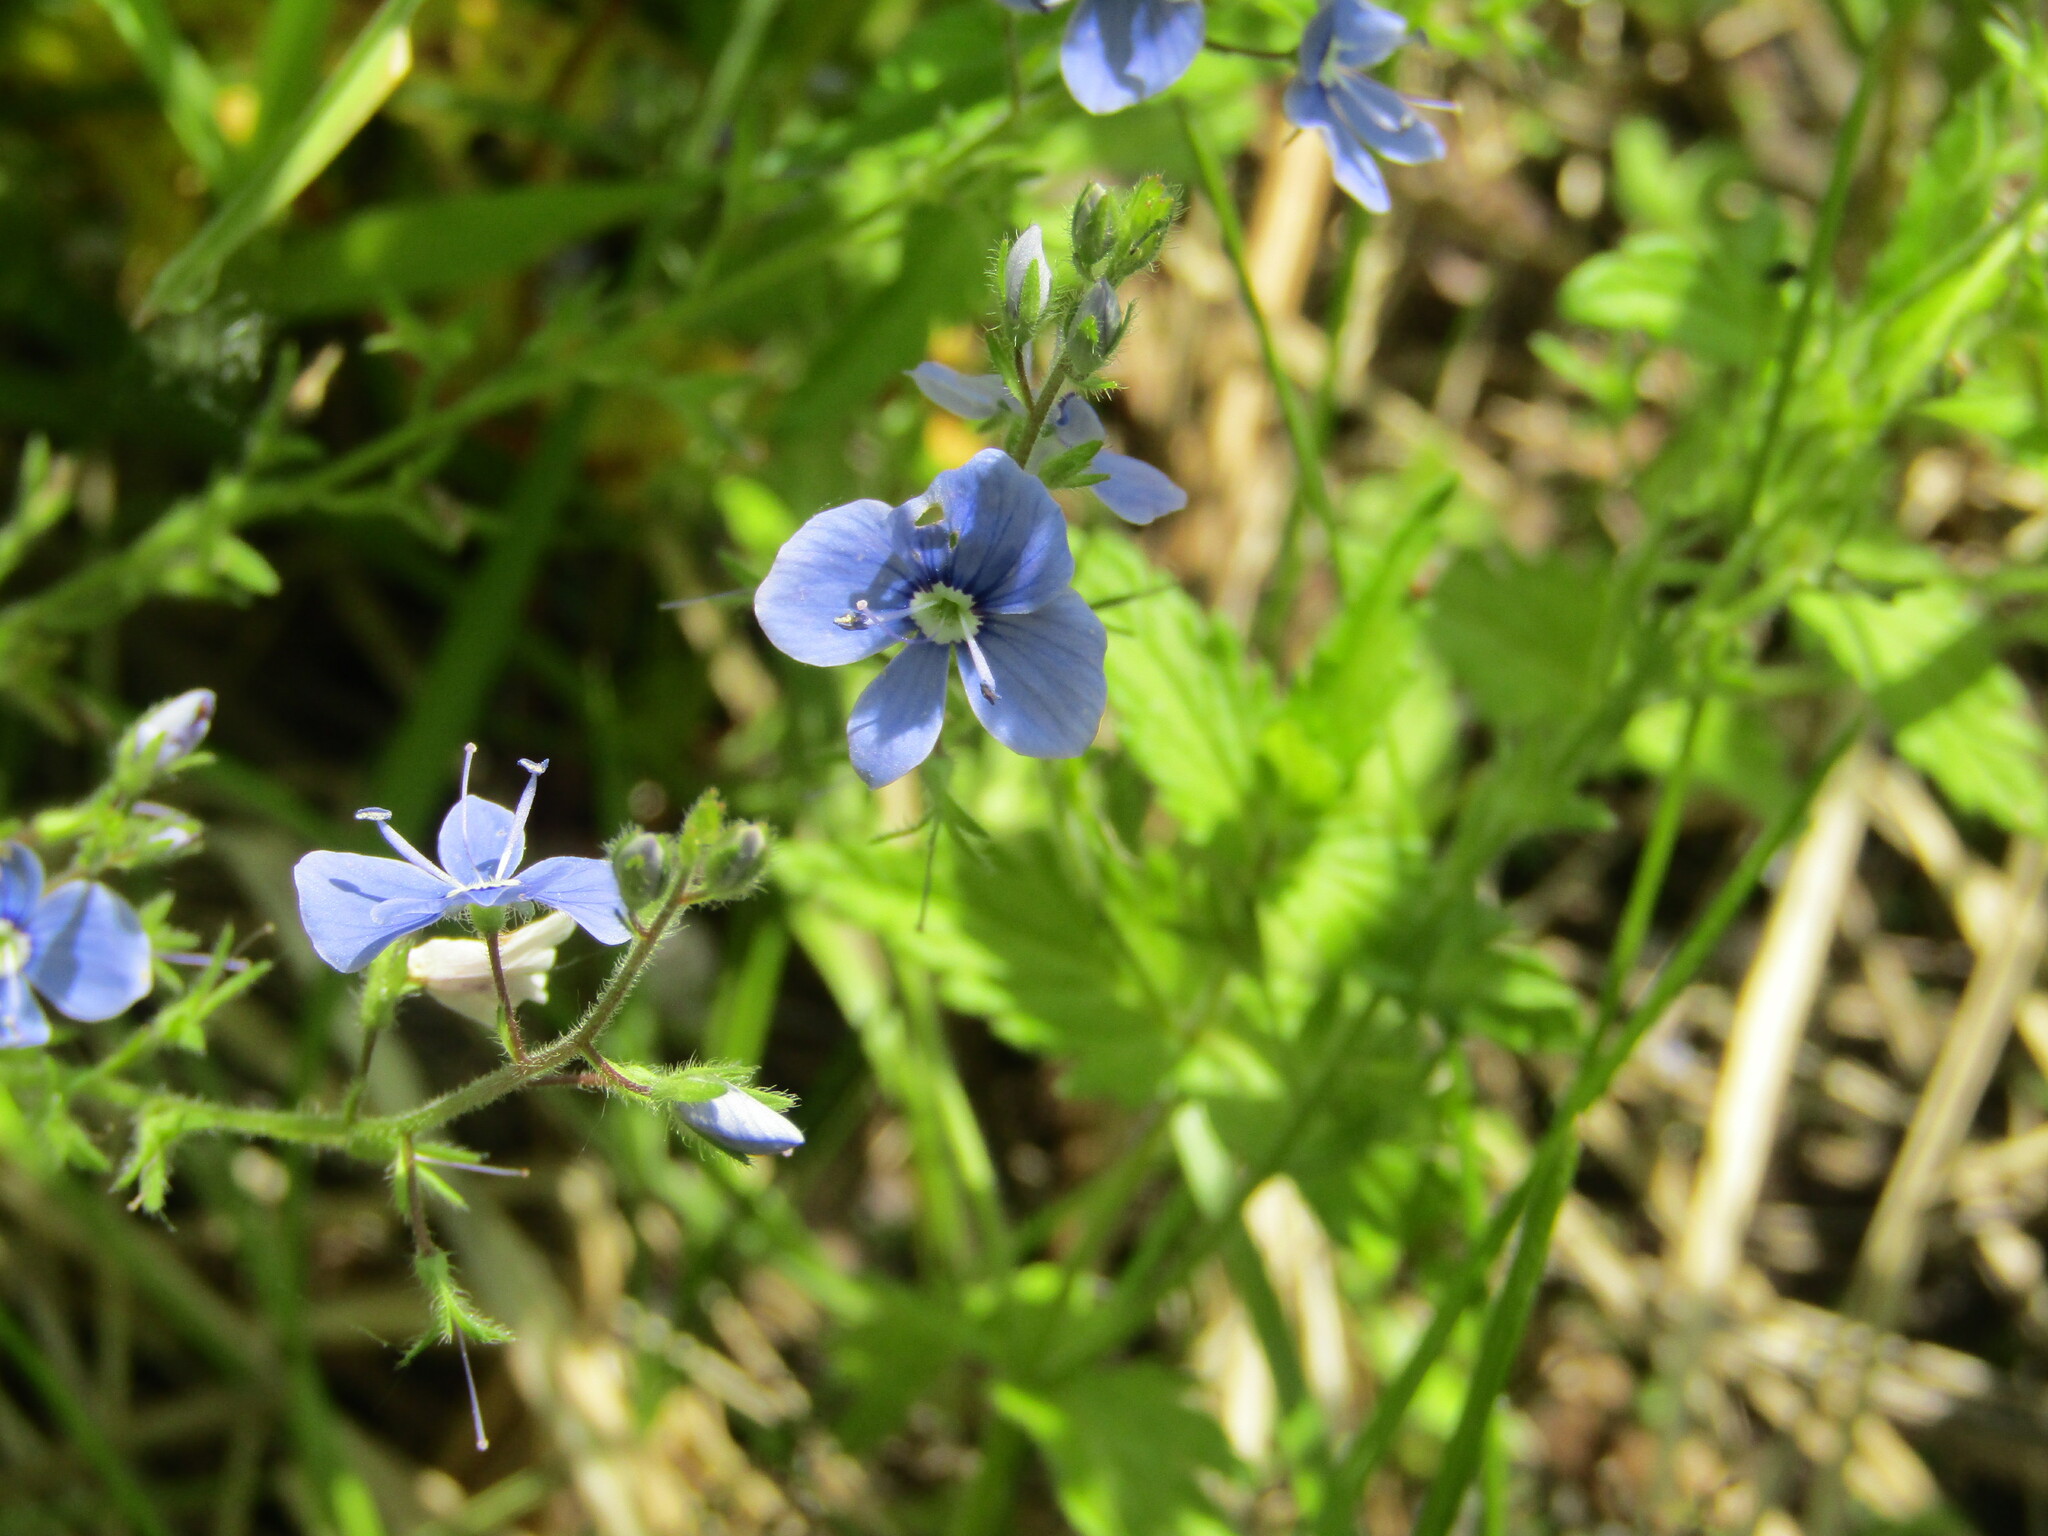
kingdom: Plantae
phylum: Tracheophyta
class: Magnoliopsida
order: Lamiales
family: Plantaginaceae
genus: Veronica
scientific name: Veronica chamaedrys
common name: Germander speedwell
